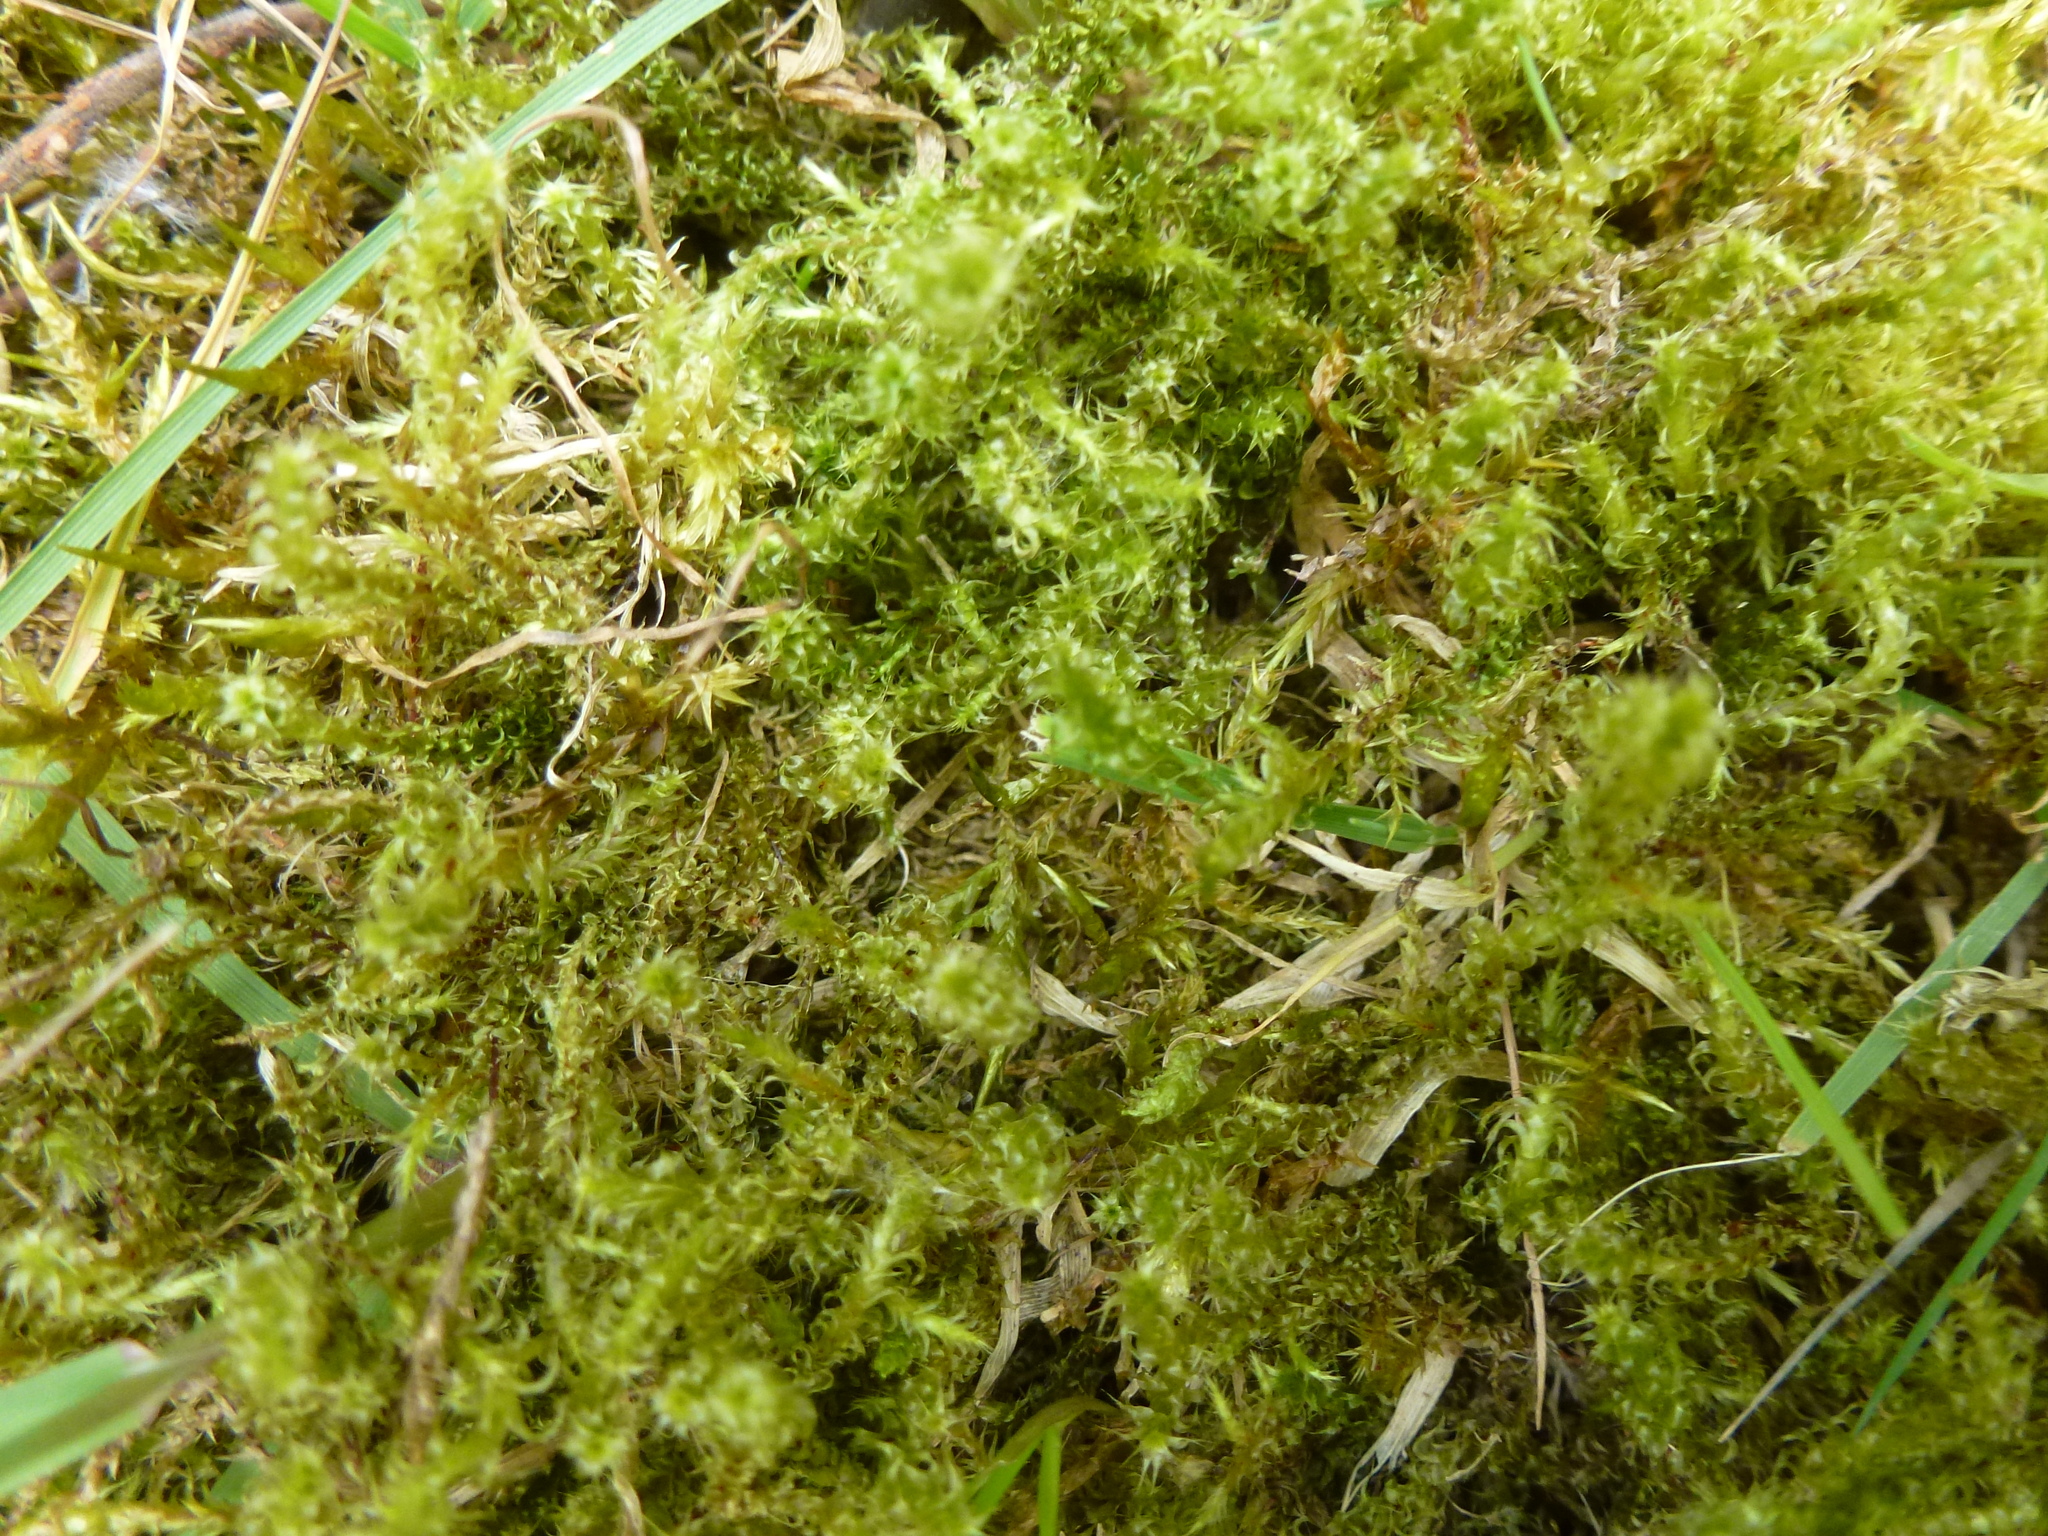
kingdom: Plantae
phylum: Bryophyta
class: Bryopsida
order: Hypnales
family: Hylocomiaceae
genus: Rhytidiadelphus
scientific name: Rhytidiadelphus squarrosus
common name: Springy turf-moss
